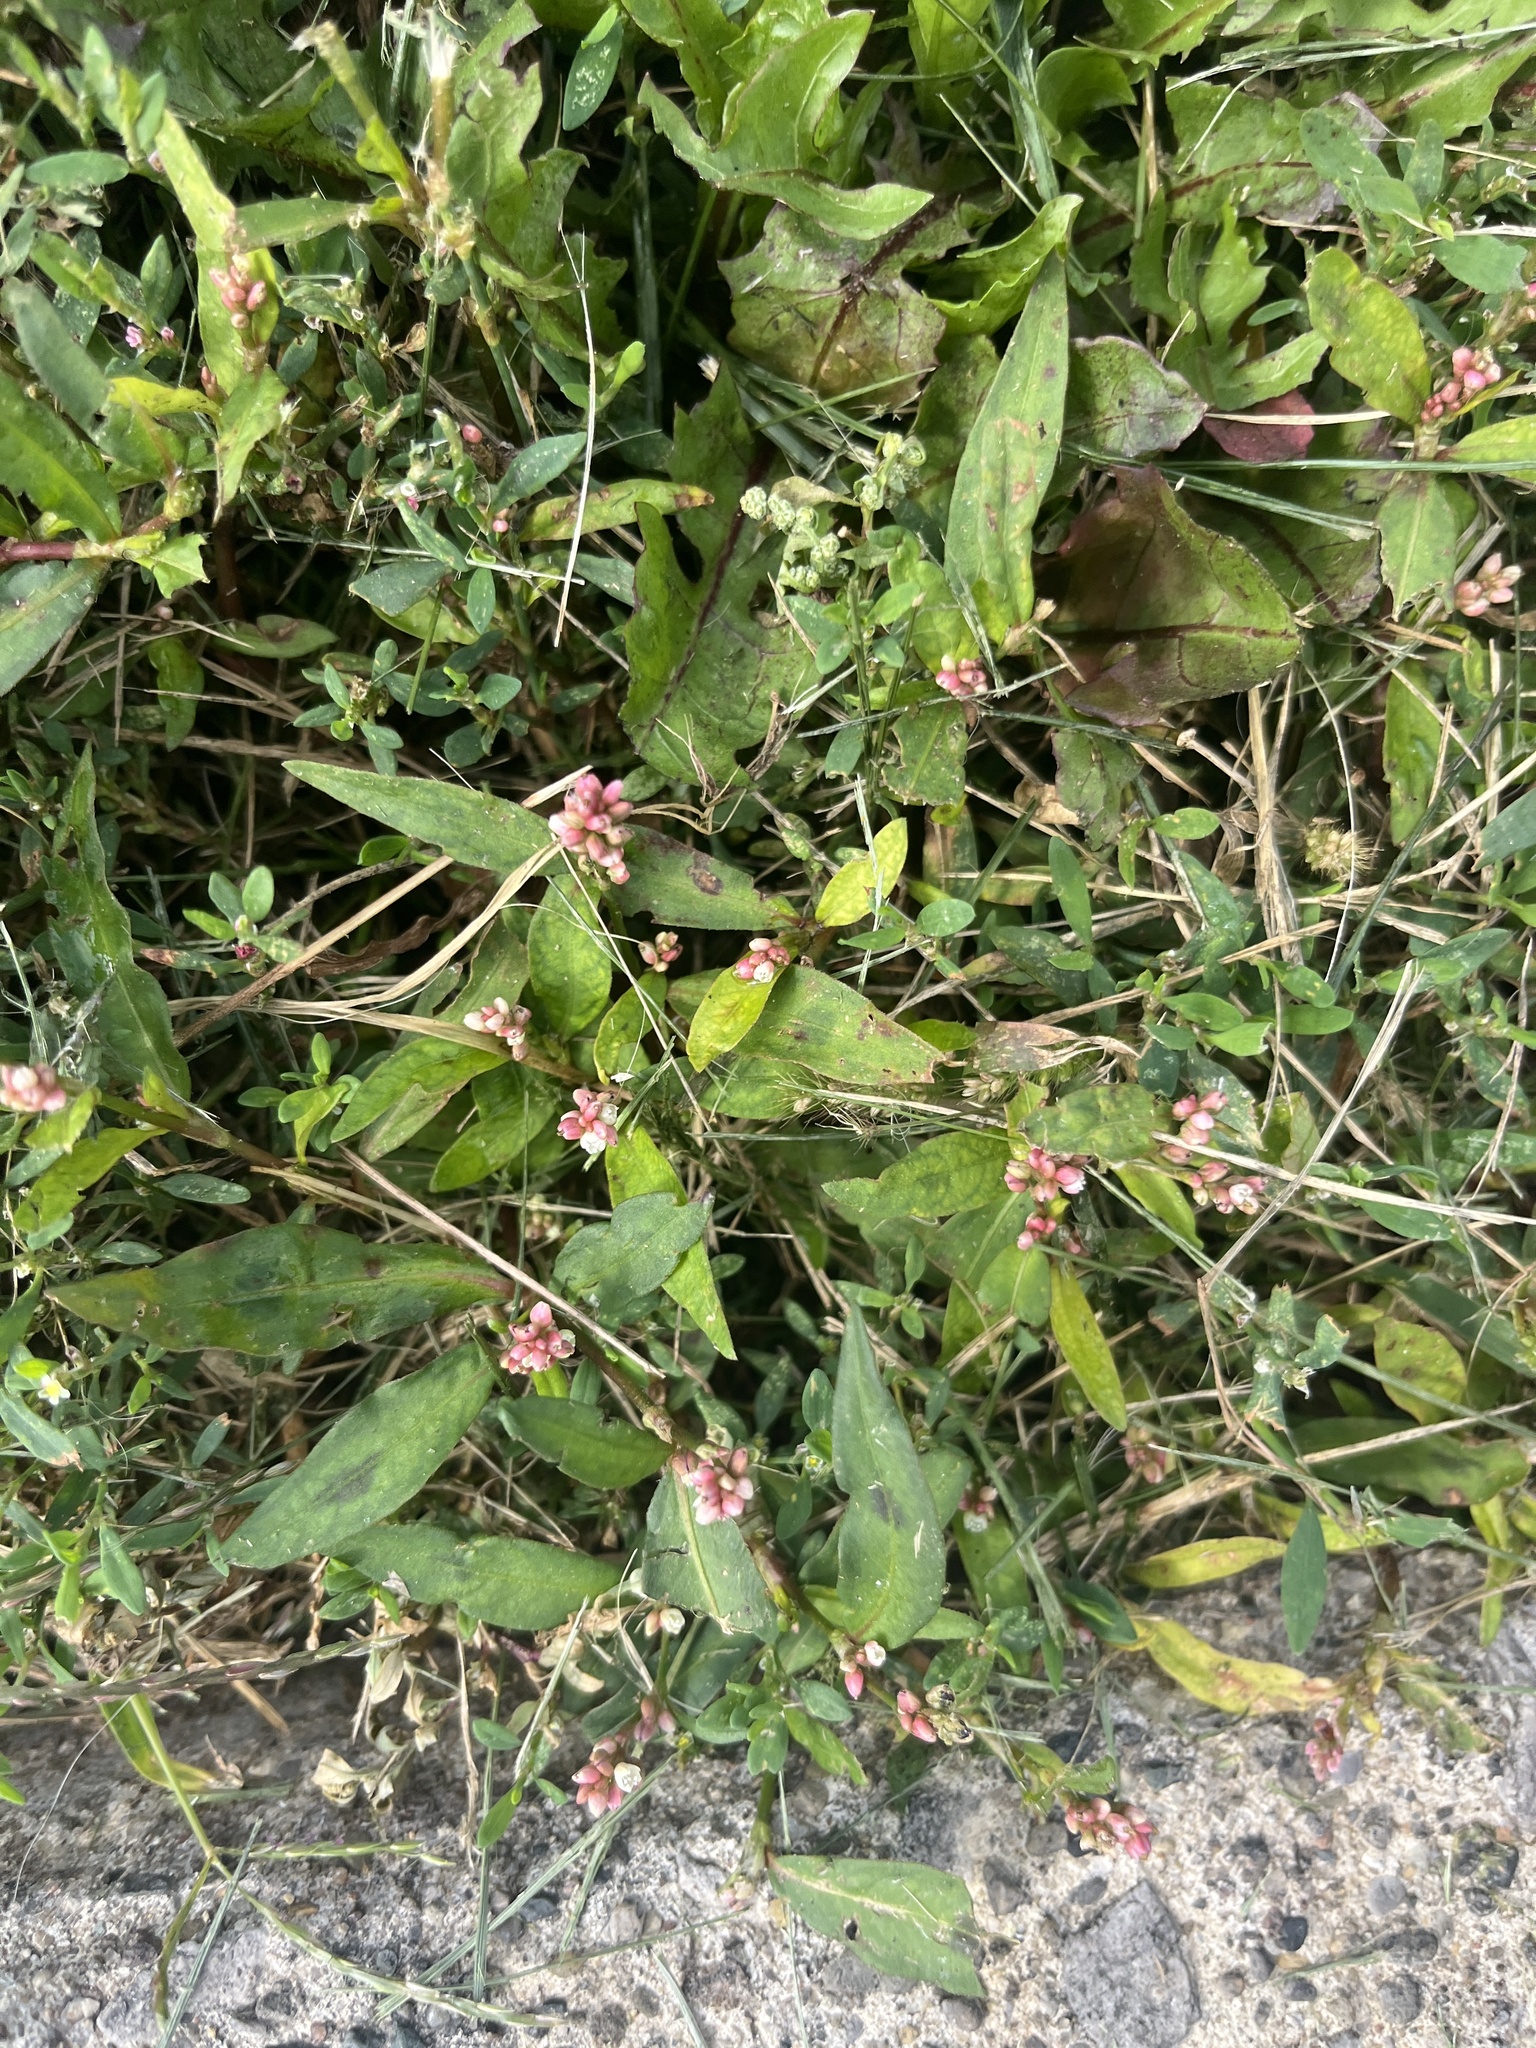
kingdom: Plantae
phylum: Tracheophyta
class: Magnoliopsida
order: Caryophyllales
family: Polygonaceae
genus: Persicaria
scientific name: Persicaria maculosa
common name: Redshank
